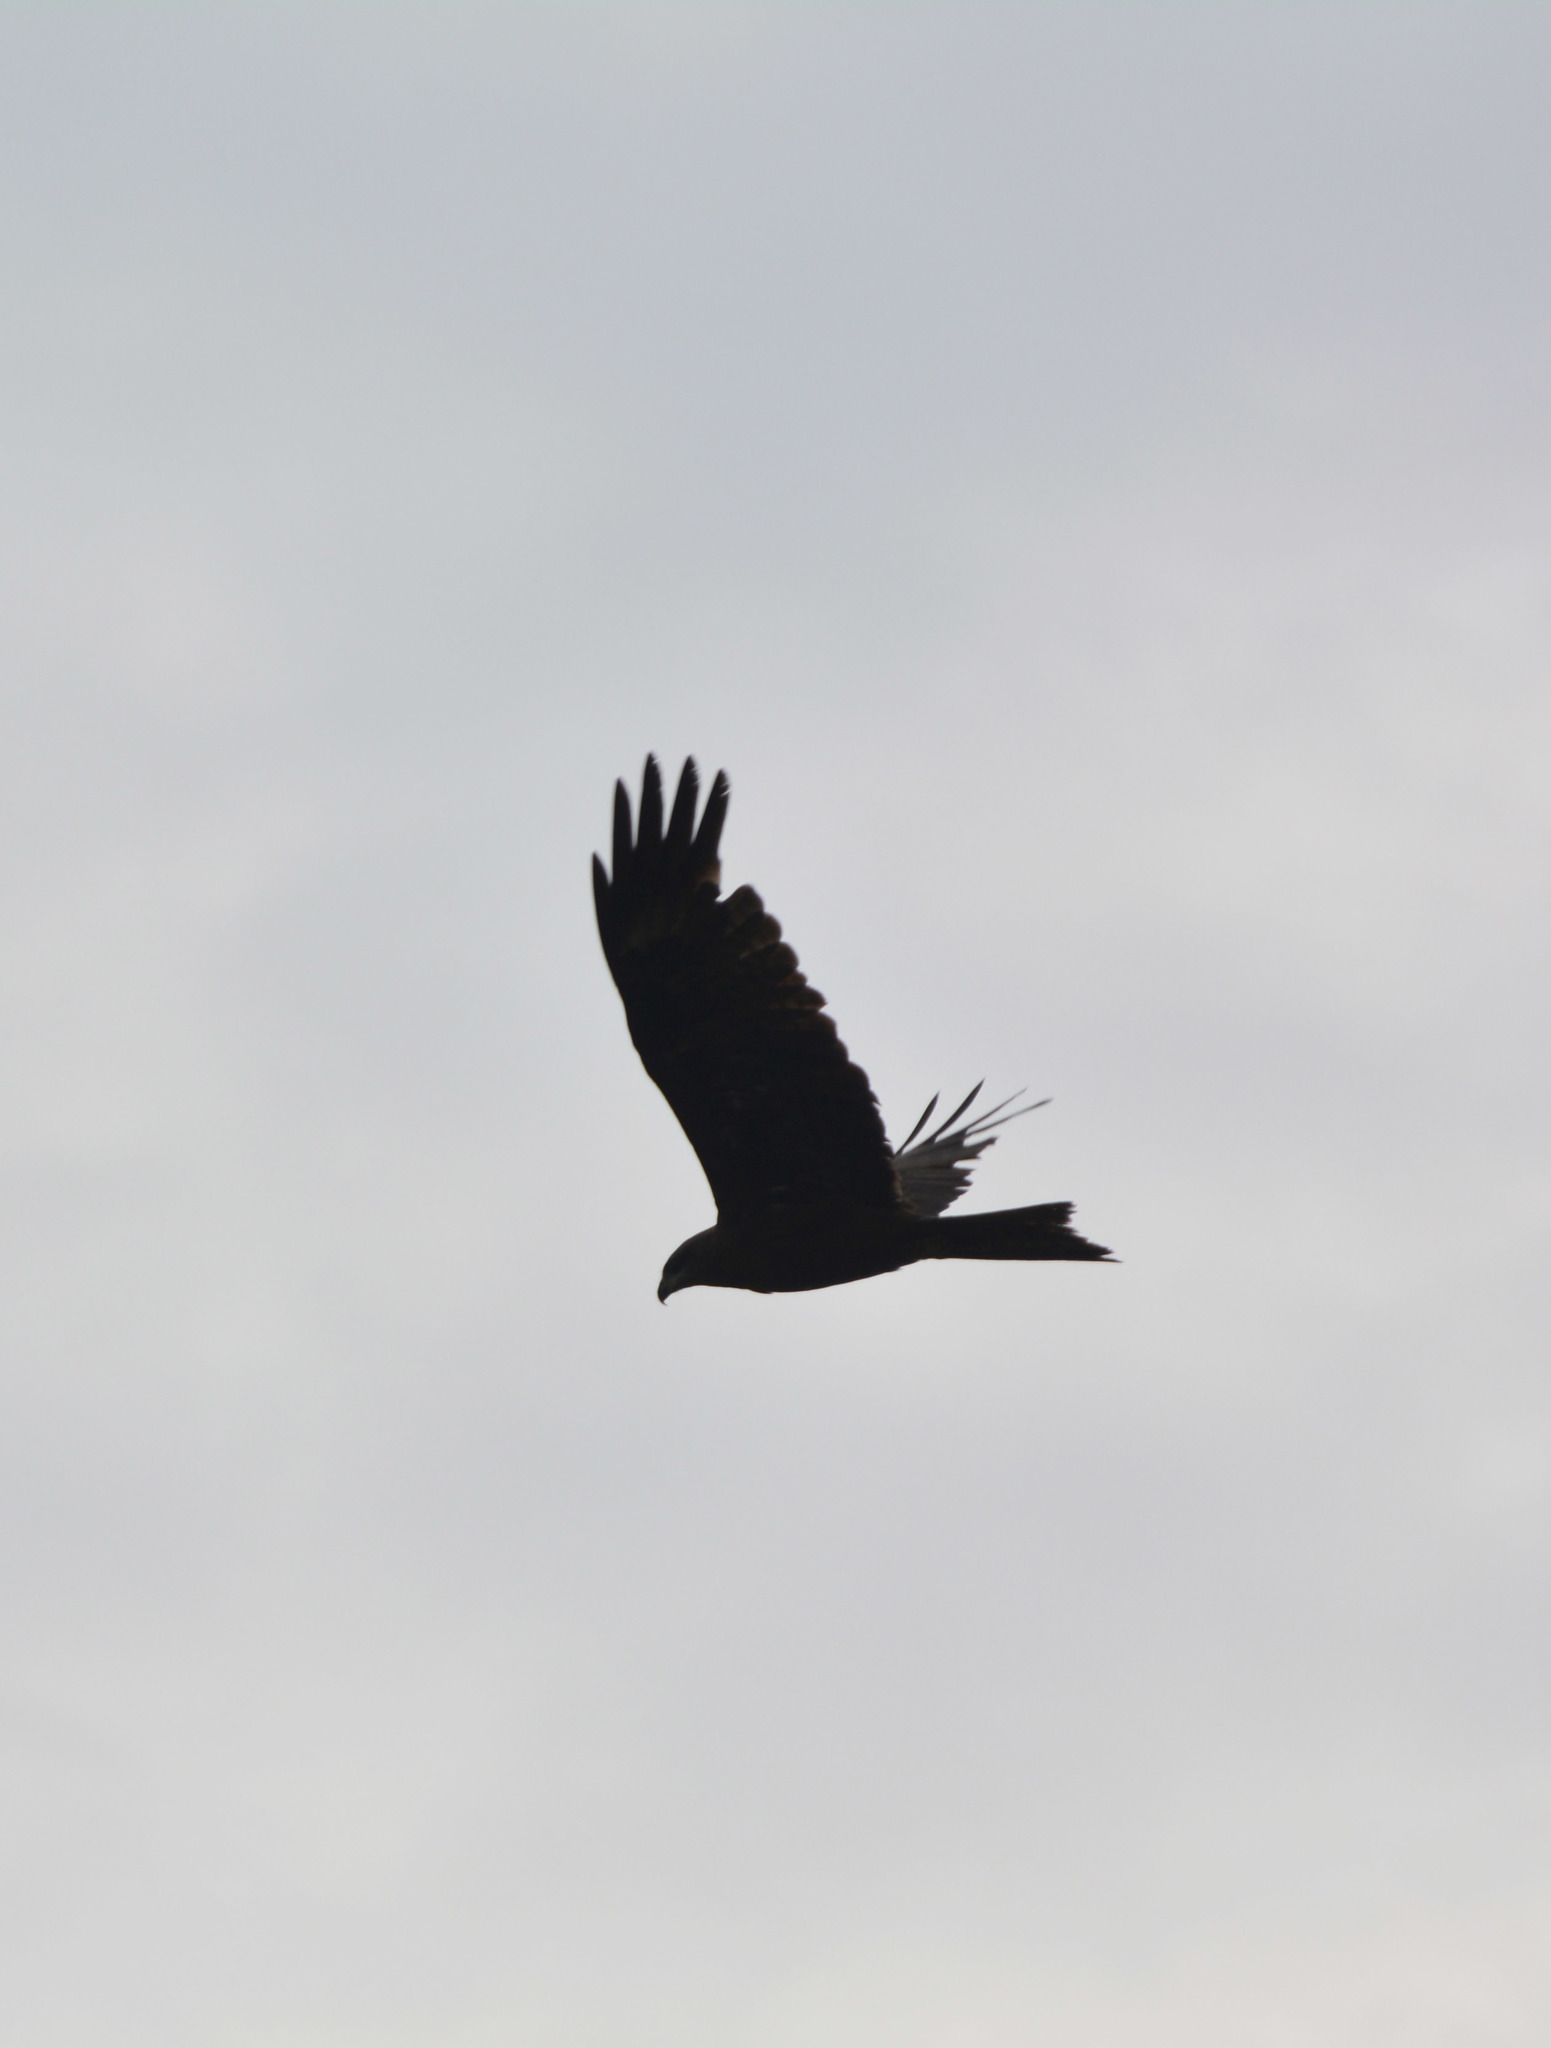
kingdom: Animalia
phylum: Chordata
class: Aves
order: Accipitriformes
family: Accipitridae
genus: Milvus
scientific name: Milvus migrans
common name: Black kite
